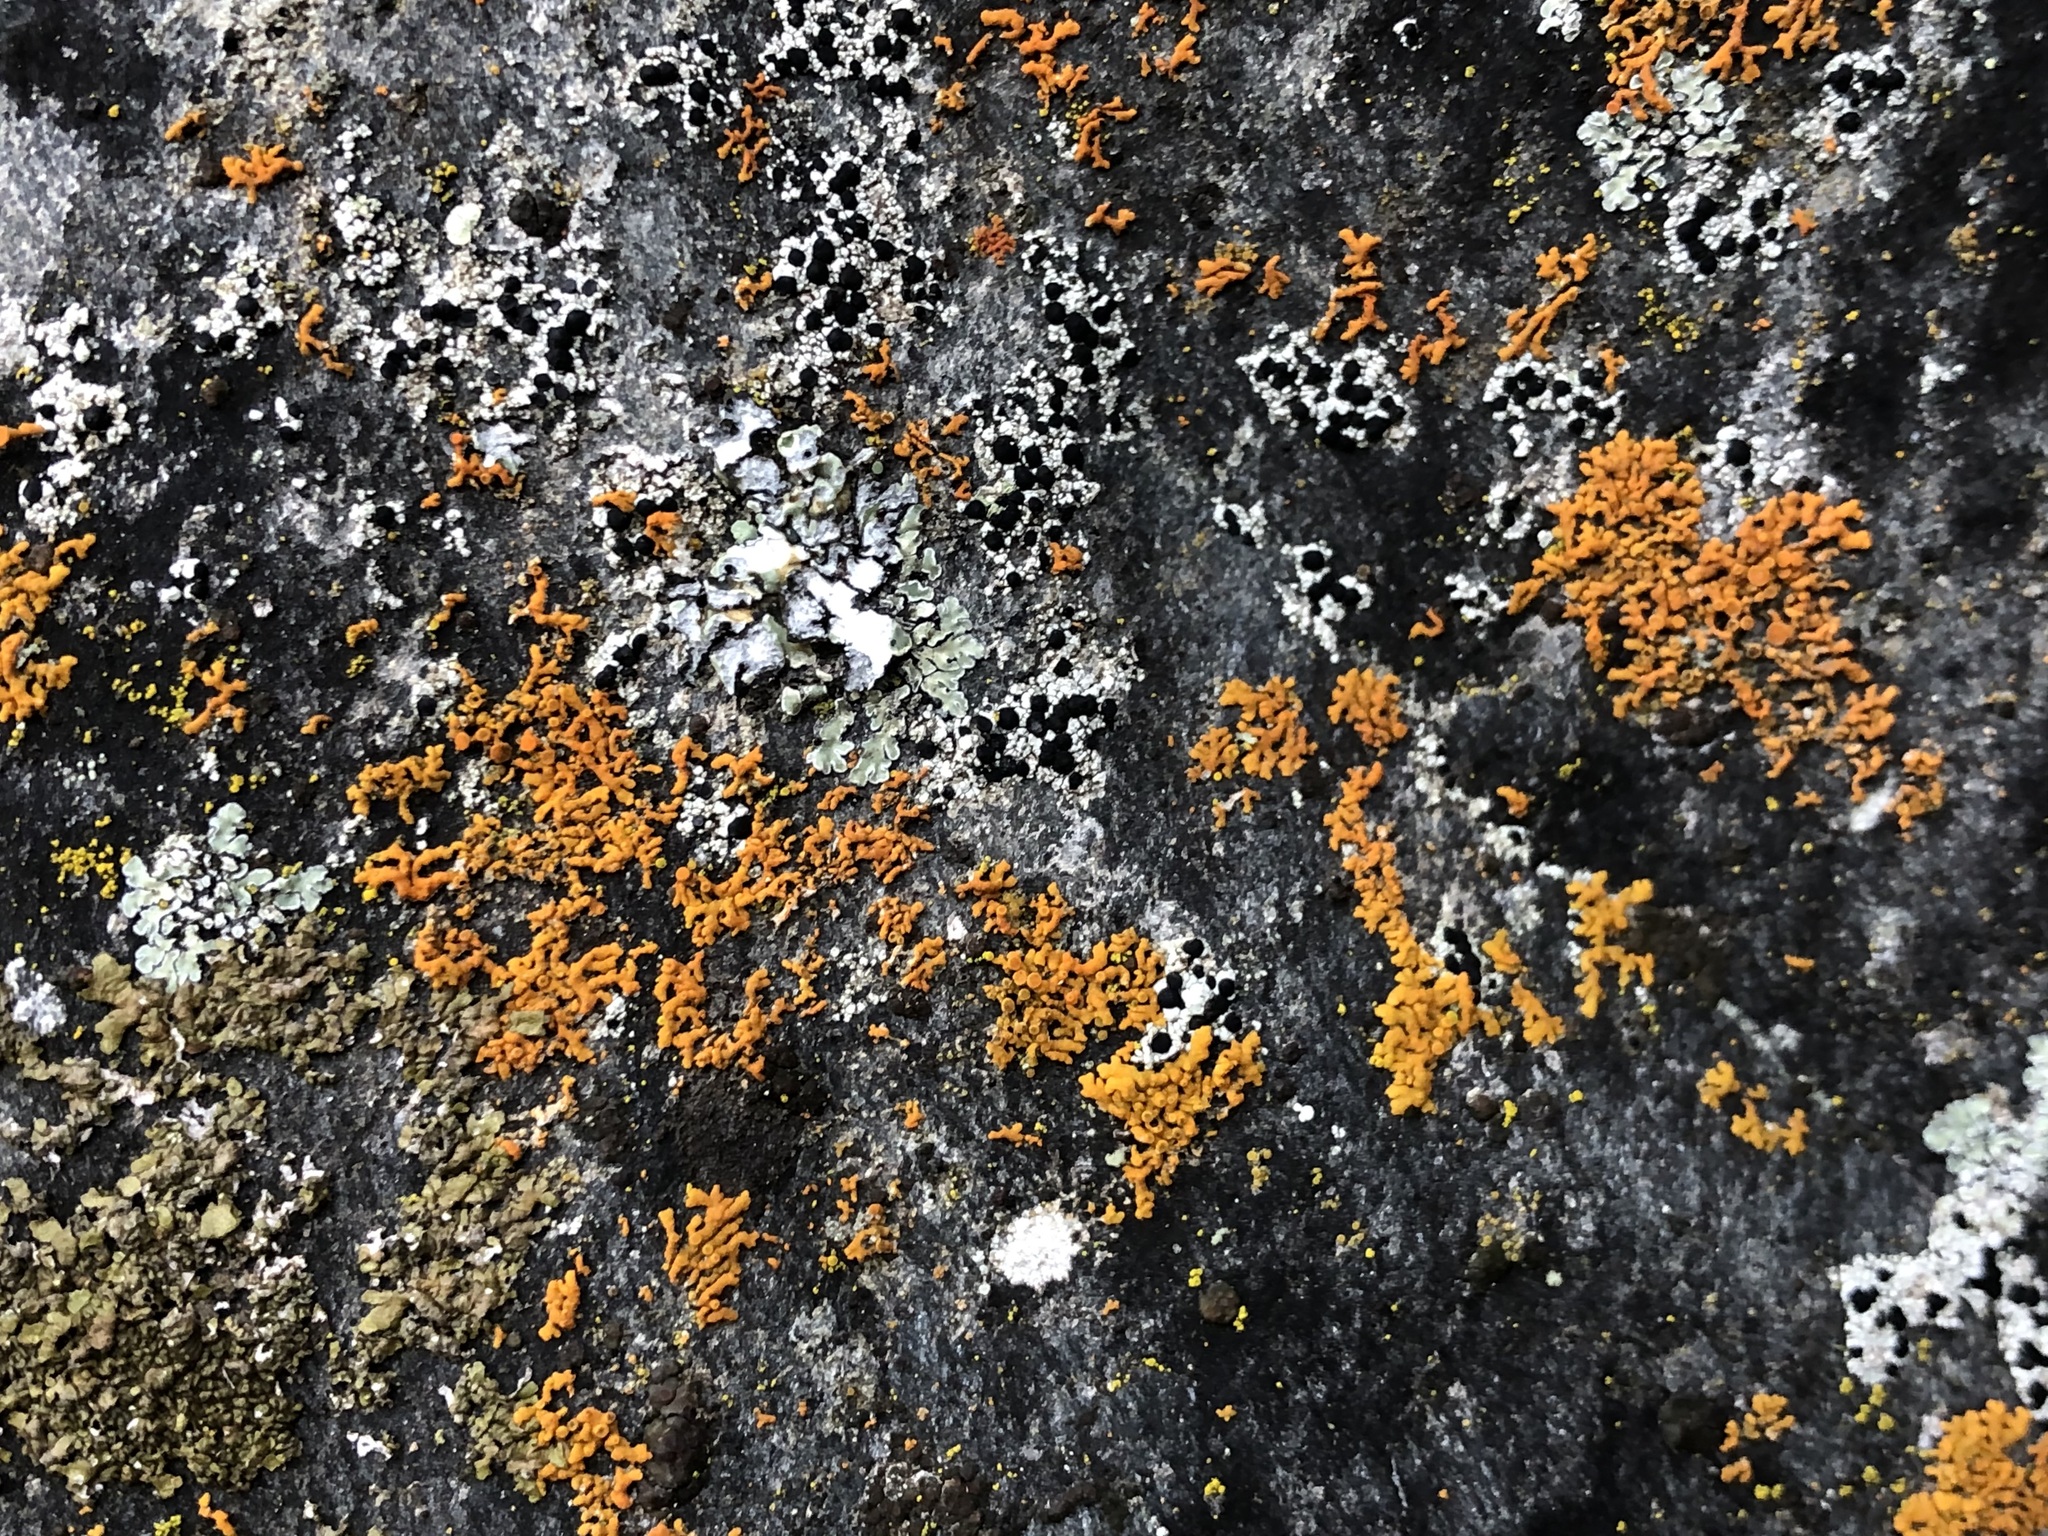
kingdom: Fungi
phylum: Ascomycota
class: Lecanoromycetes
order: Teloschistales
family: Teloschistaceae
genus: Xanthoria
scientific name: Xanthoria elegans
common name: Elegant sunburst lichen
